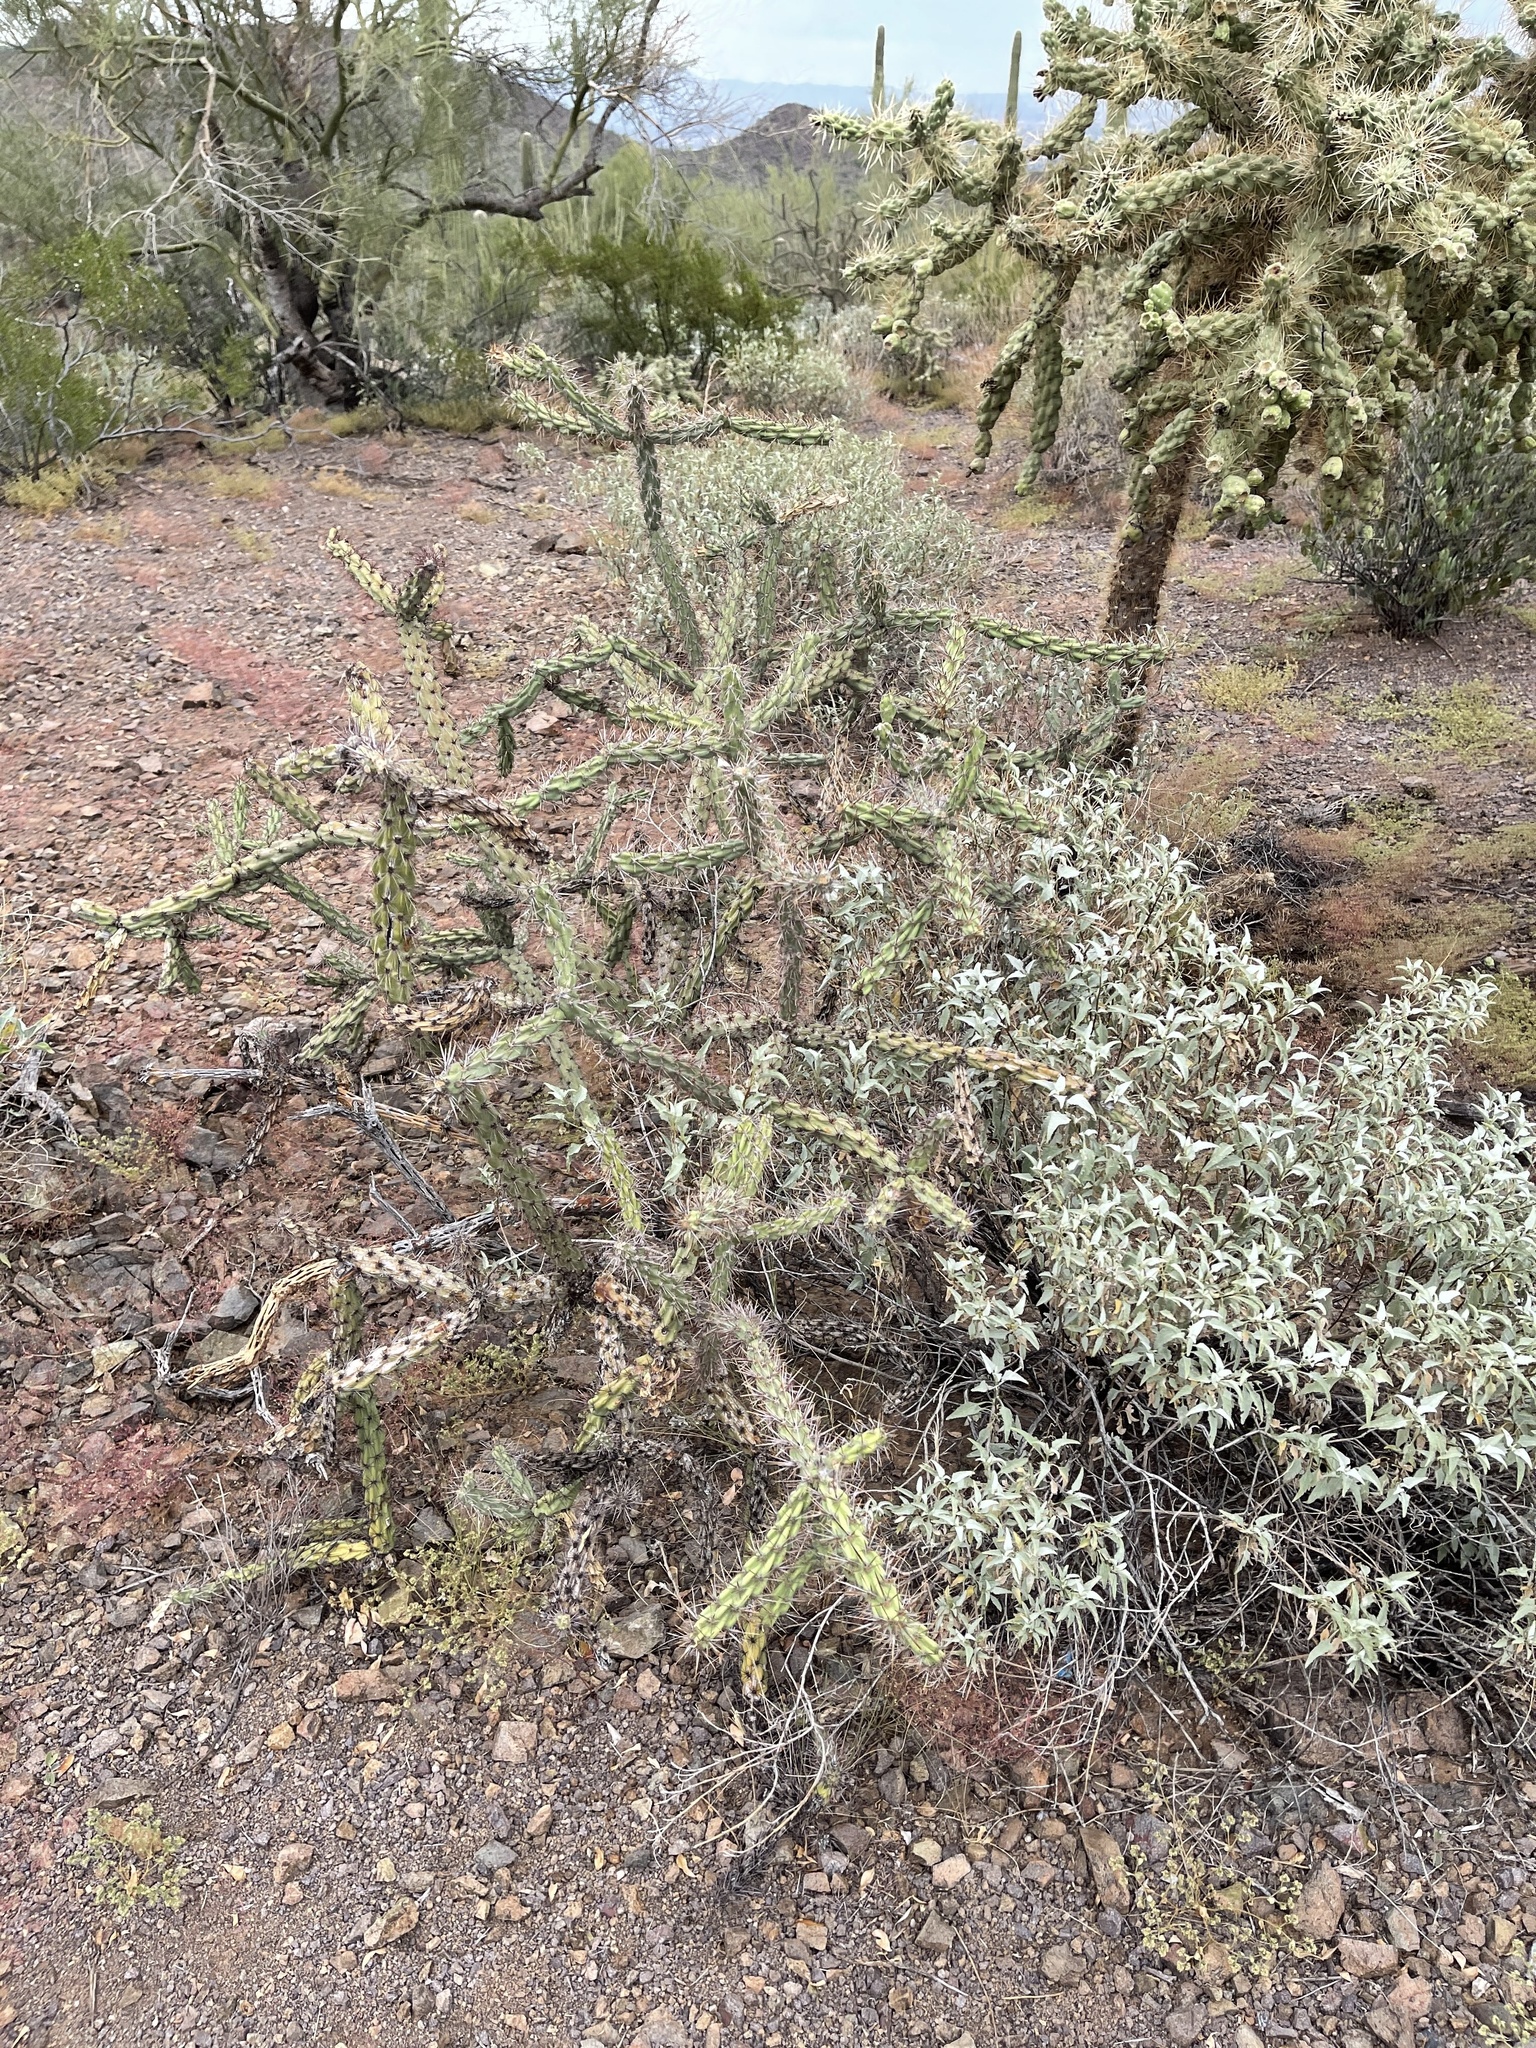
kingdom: Plantae
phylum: Tracheophyta
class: Magnoliopsida
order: Caryophyllales
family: Cactaceae
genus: Cylindropuntia
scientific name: Cylindropuntia acanthocarpa
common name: Buckhorn cholla
